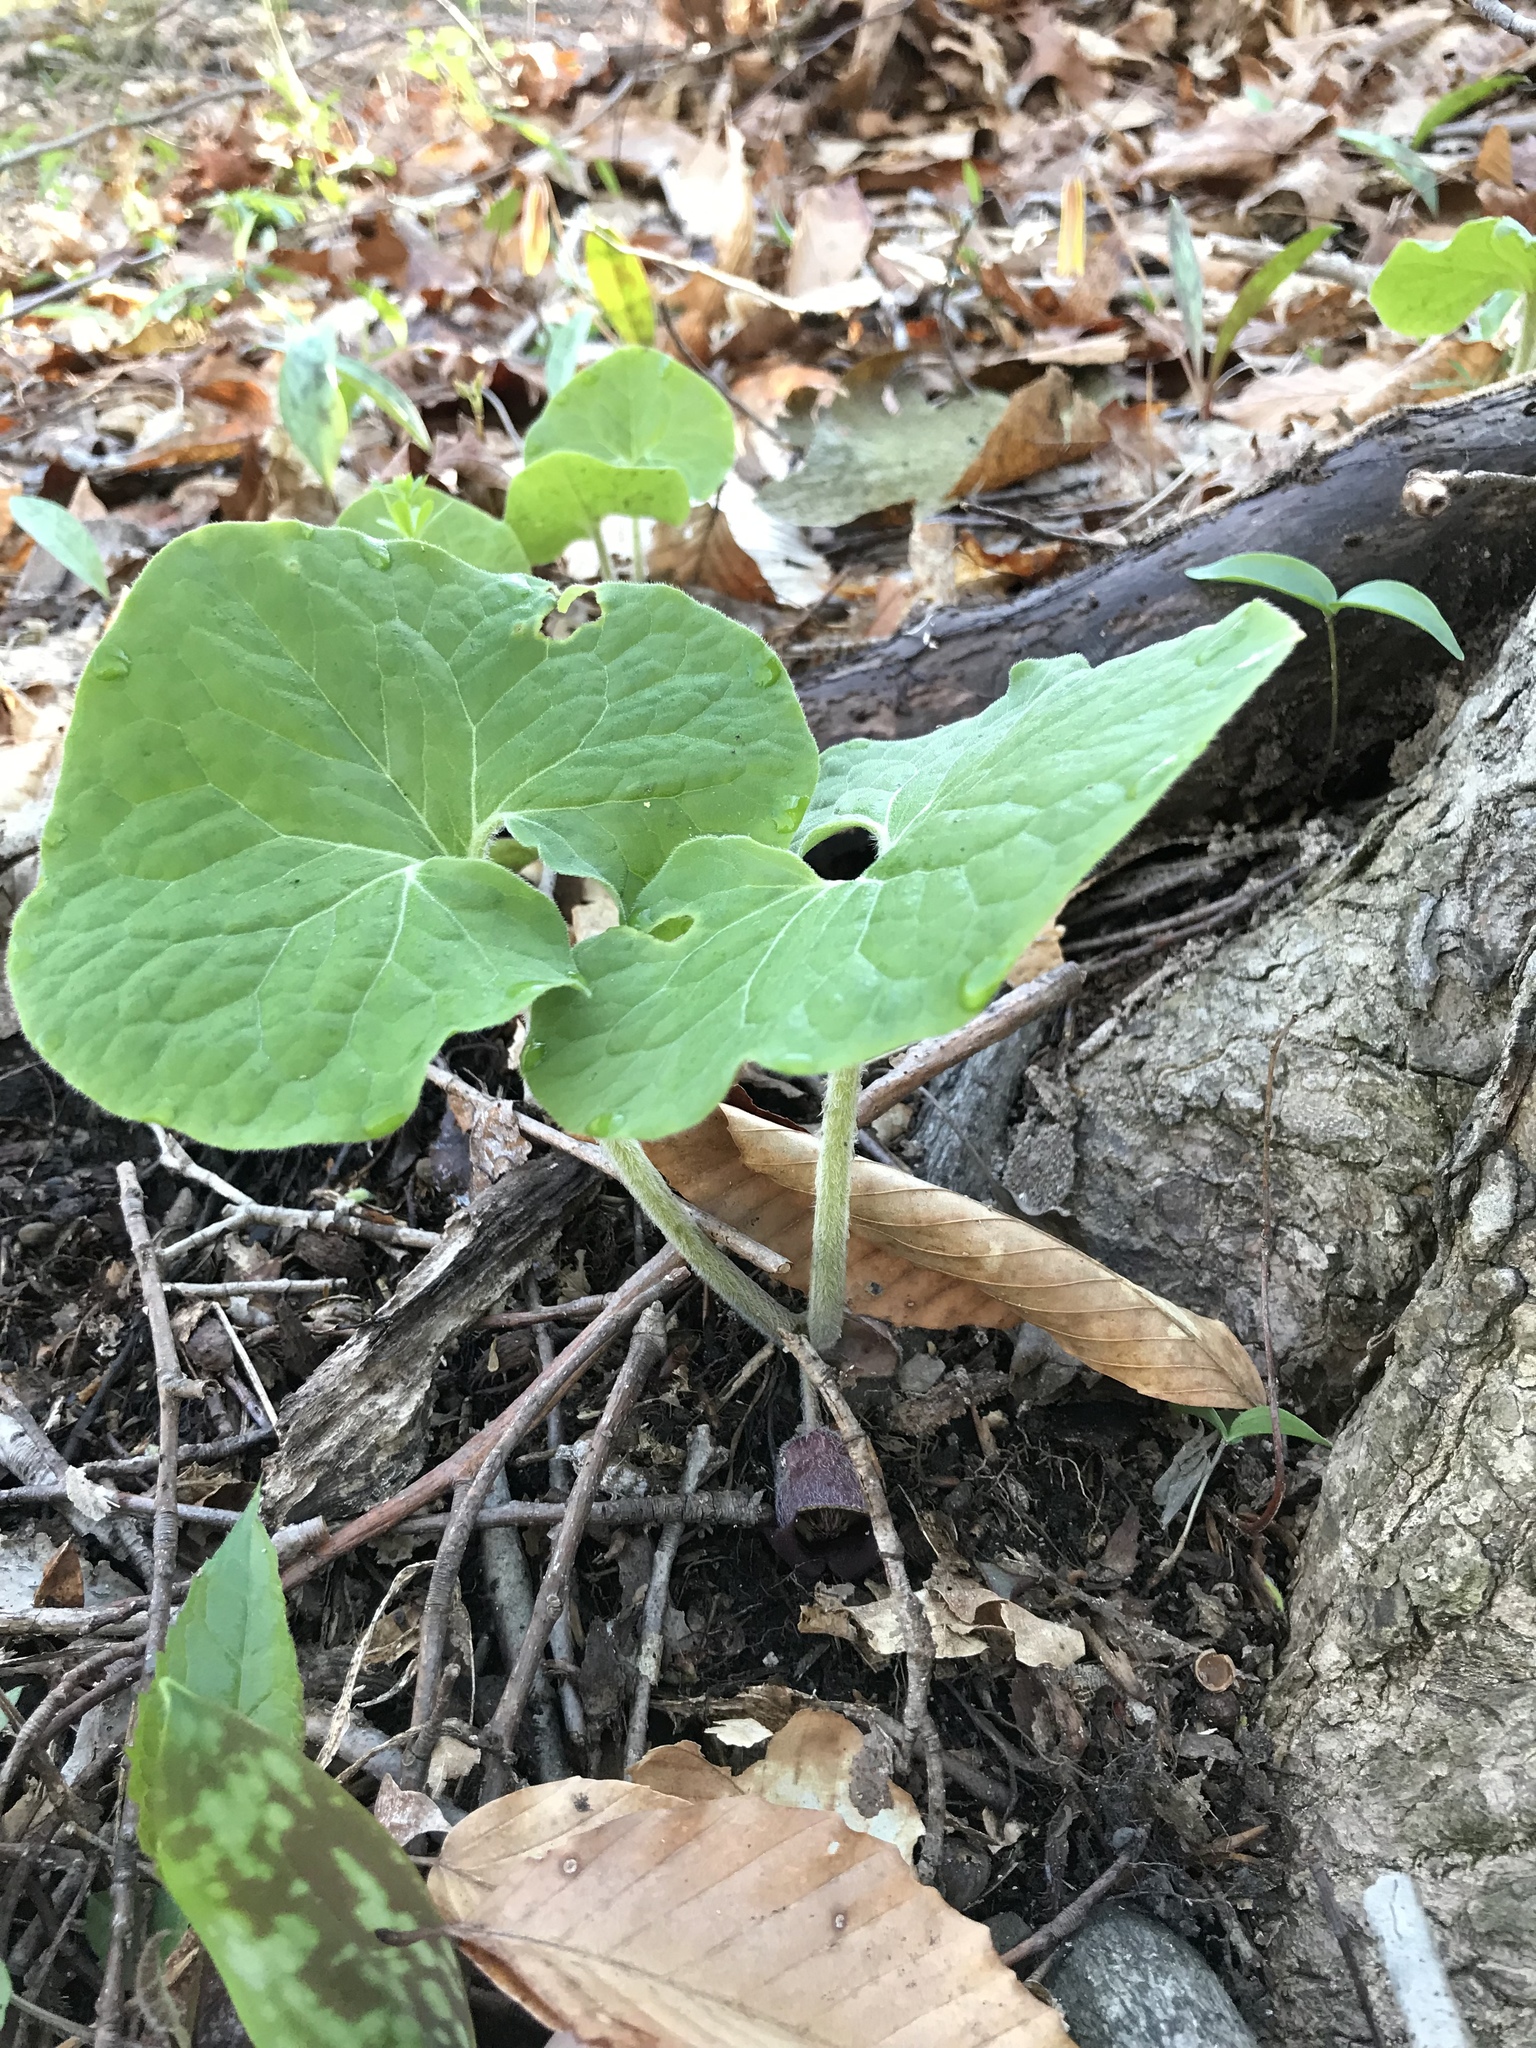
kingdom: Plantae
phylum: Tracheophyta
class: Magnoliopsida
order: Piperales
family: Aristolochiaceae
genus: Asarum
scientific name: Asarum canadense
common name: Wild ginger
